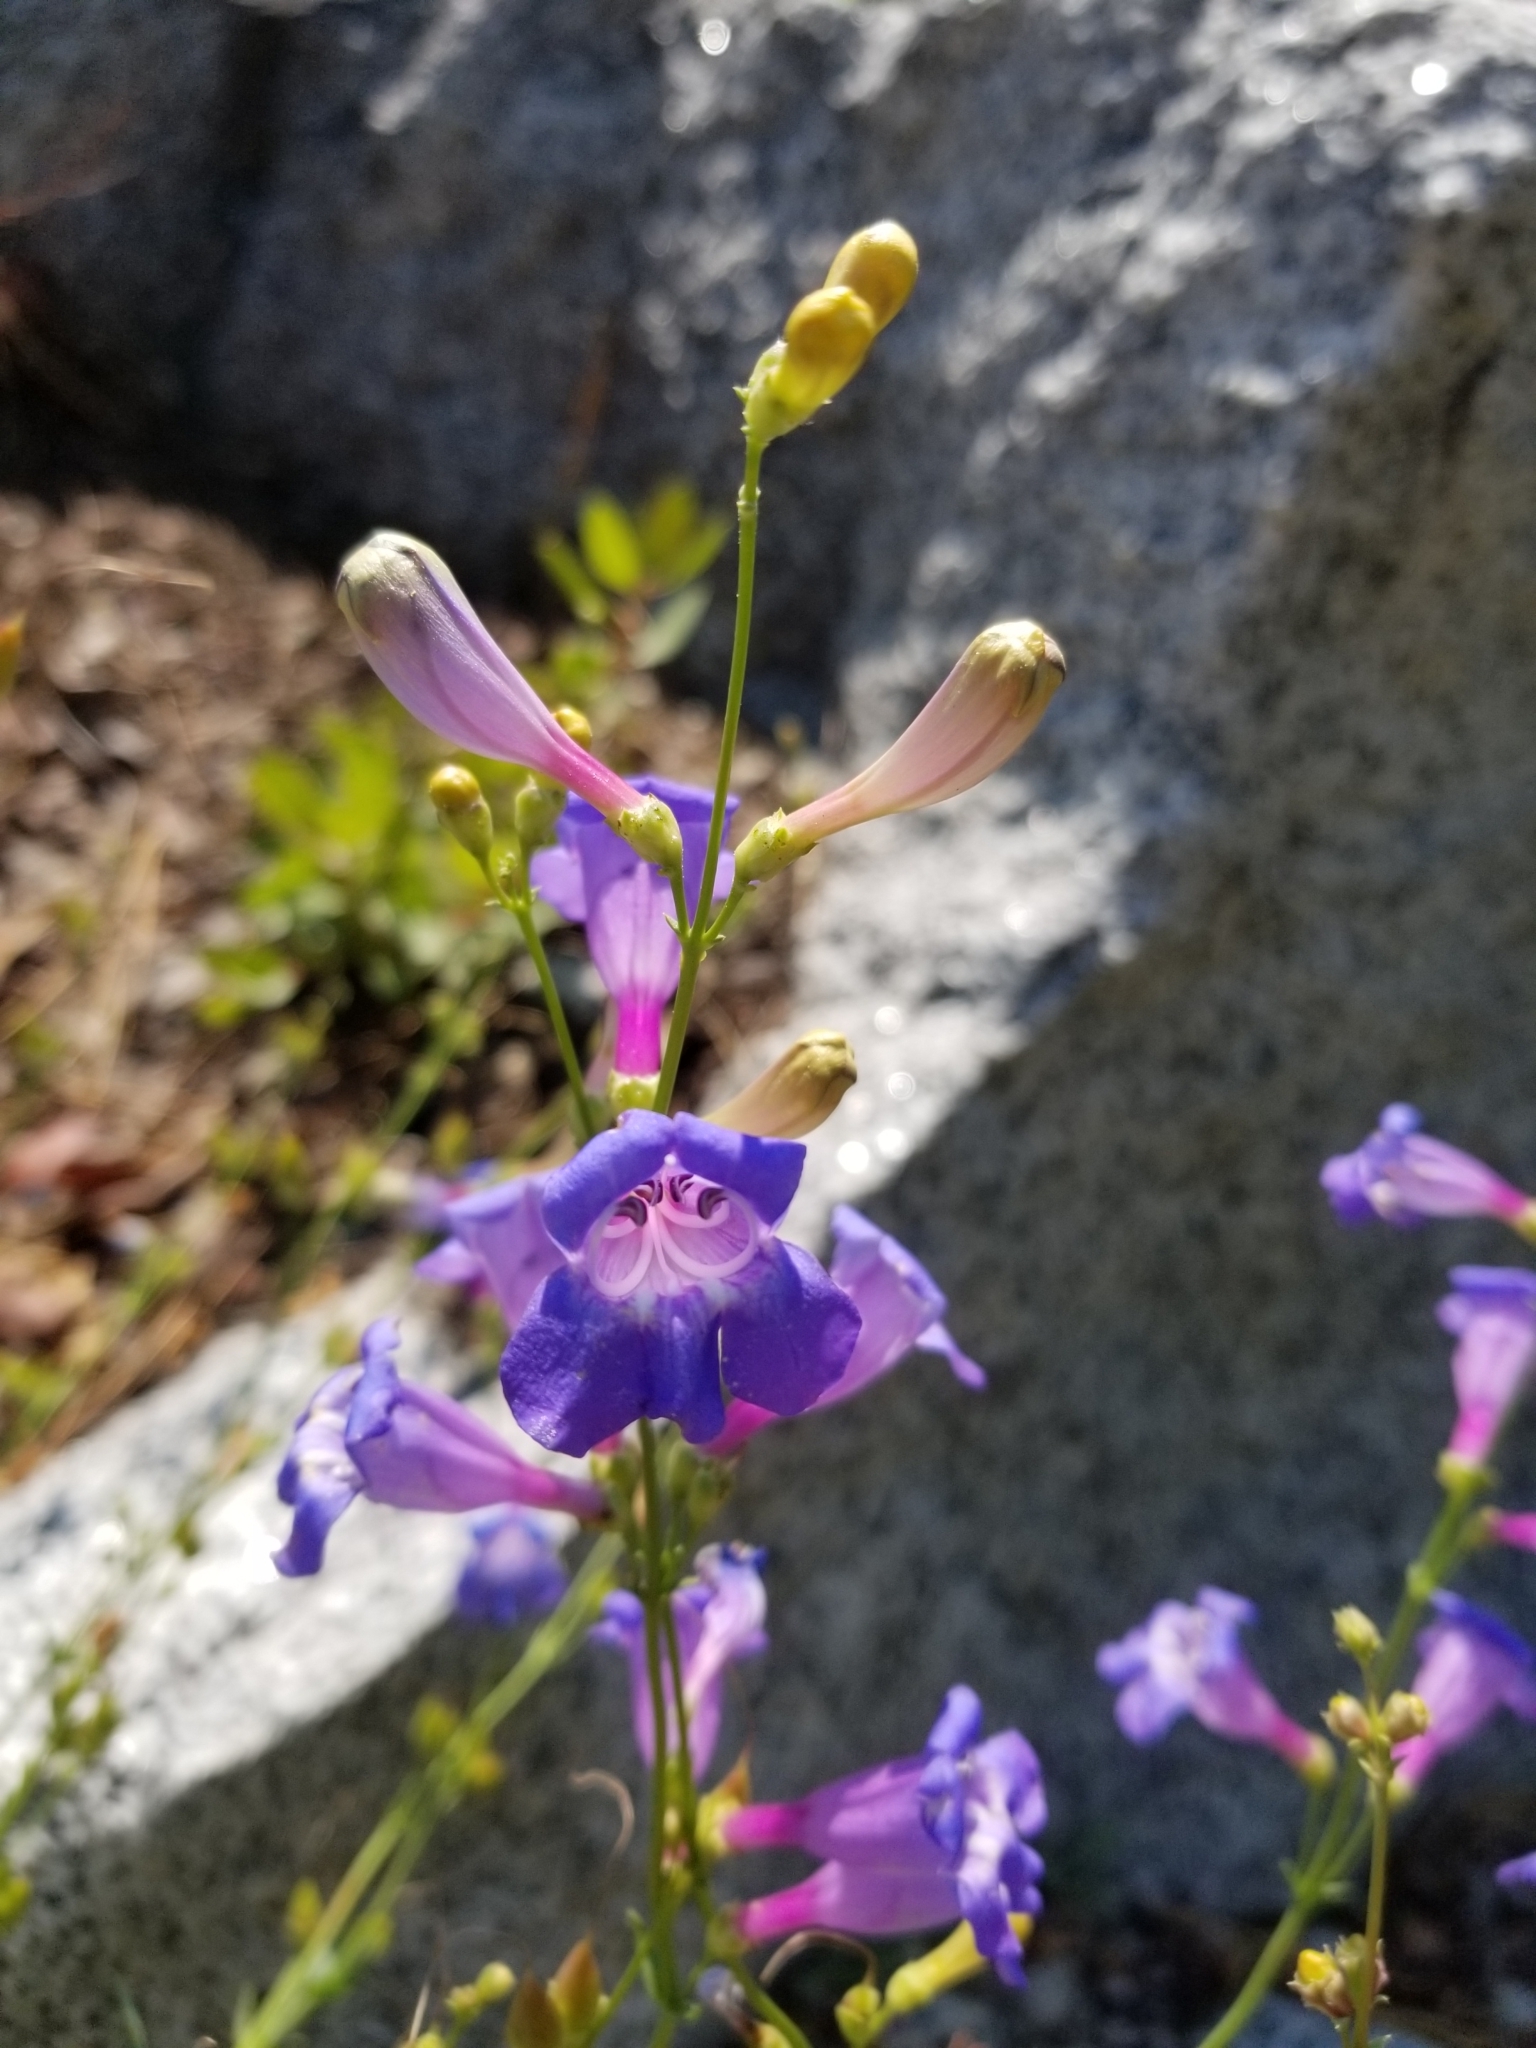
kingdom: Plantae
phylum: Tracheophyta
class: Magnoliopsida
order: Lamiales
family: Plantaginaceae
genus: Penstemon
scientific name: Penstemon azureus
